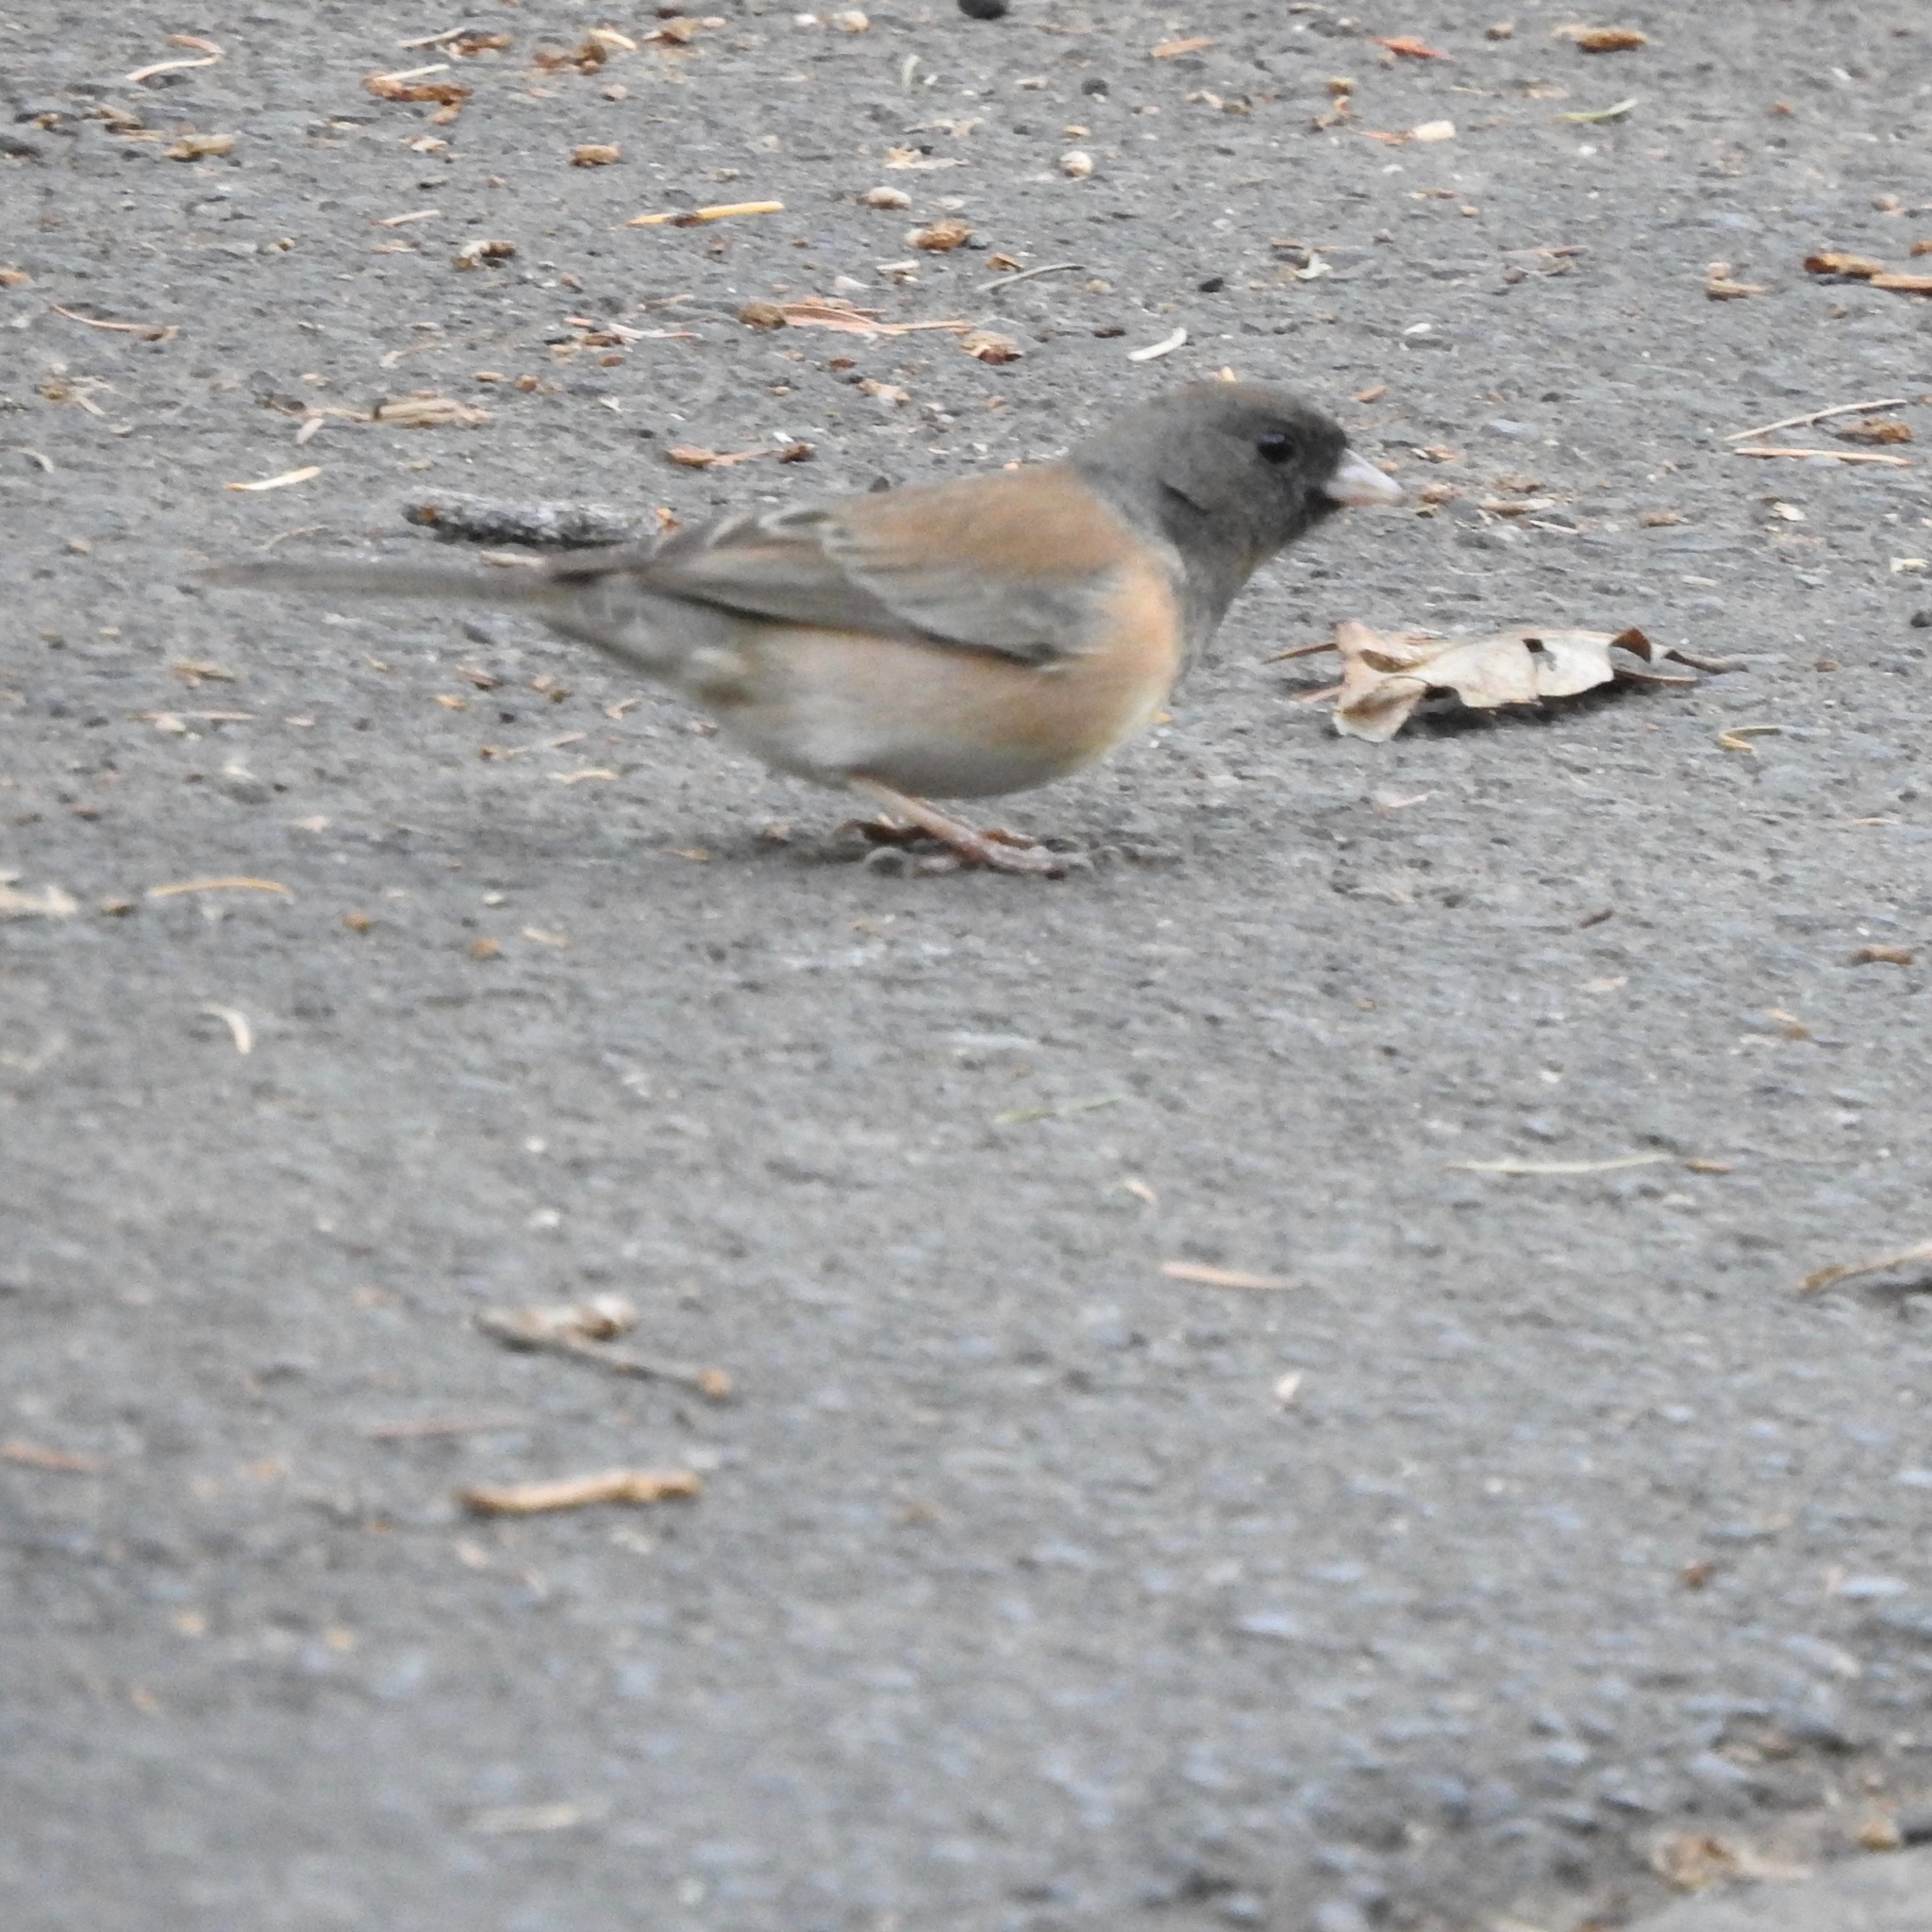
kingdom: Animalia
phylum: Chordata
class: Aves
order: Passeriformes
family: Passerellidae
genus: Junco
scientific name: Junco hyemalis
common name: Dark-eyed junco
